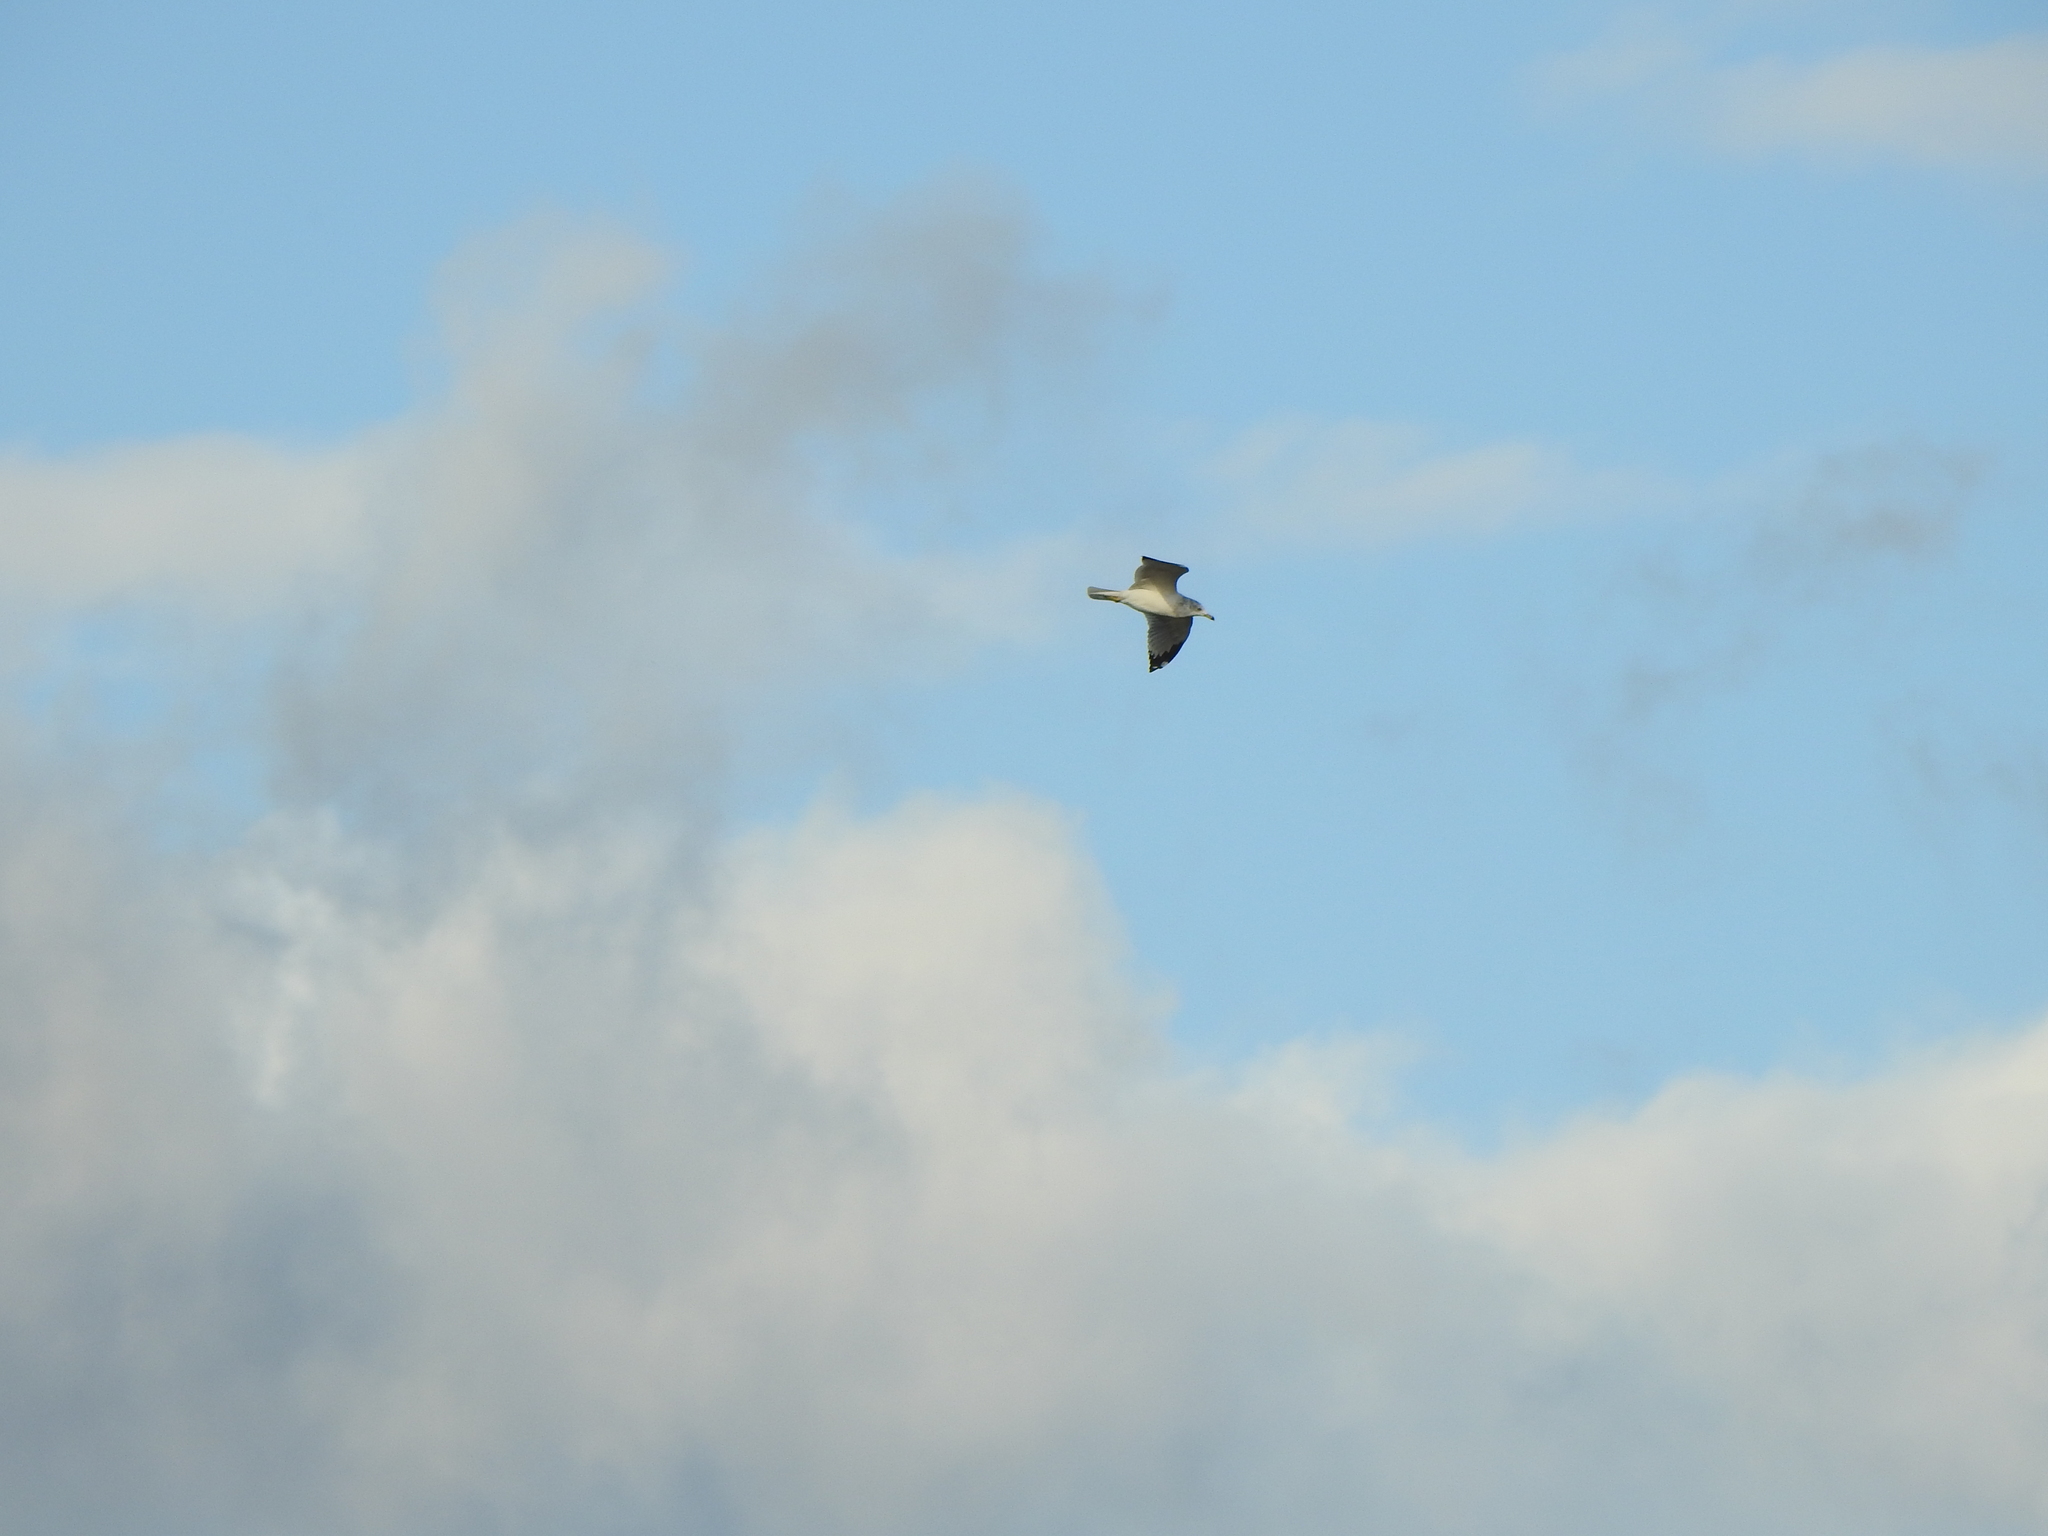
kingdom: Animalia
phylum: Chordata
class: Aves
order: Charadriiformes
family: Laridae
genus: Larus
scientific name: Larus delawarensis
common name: Ring-billed gull
